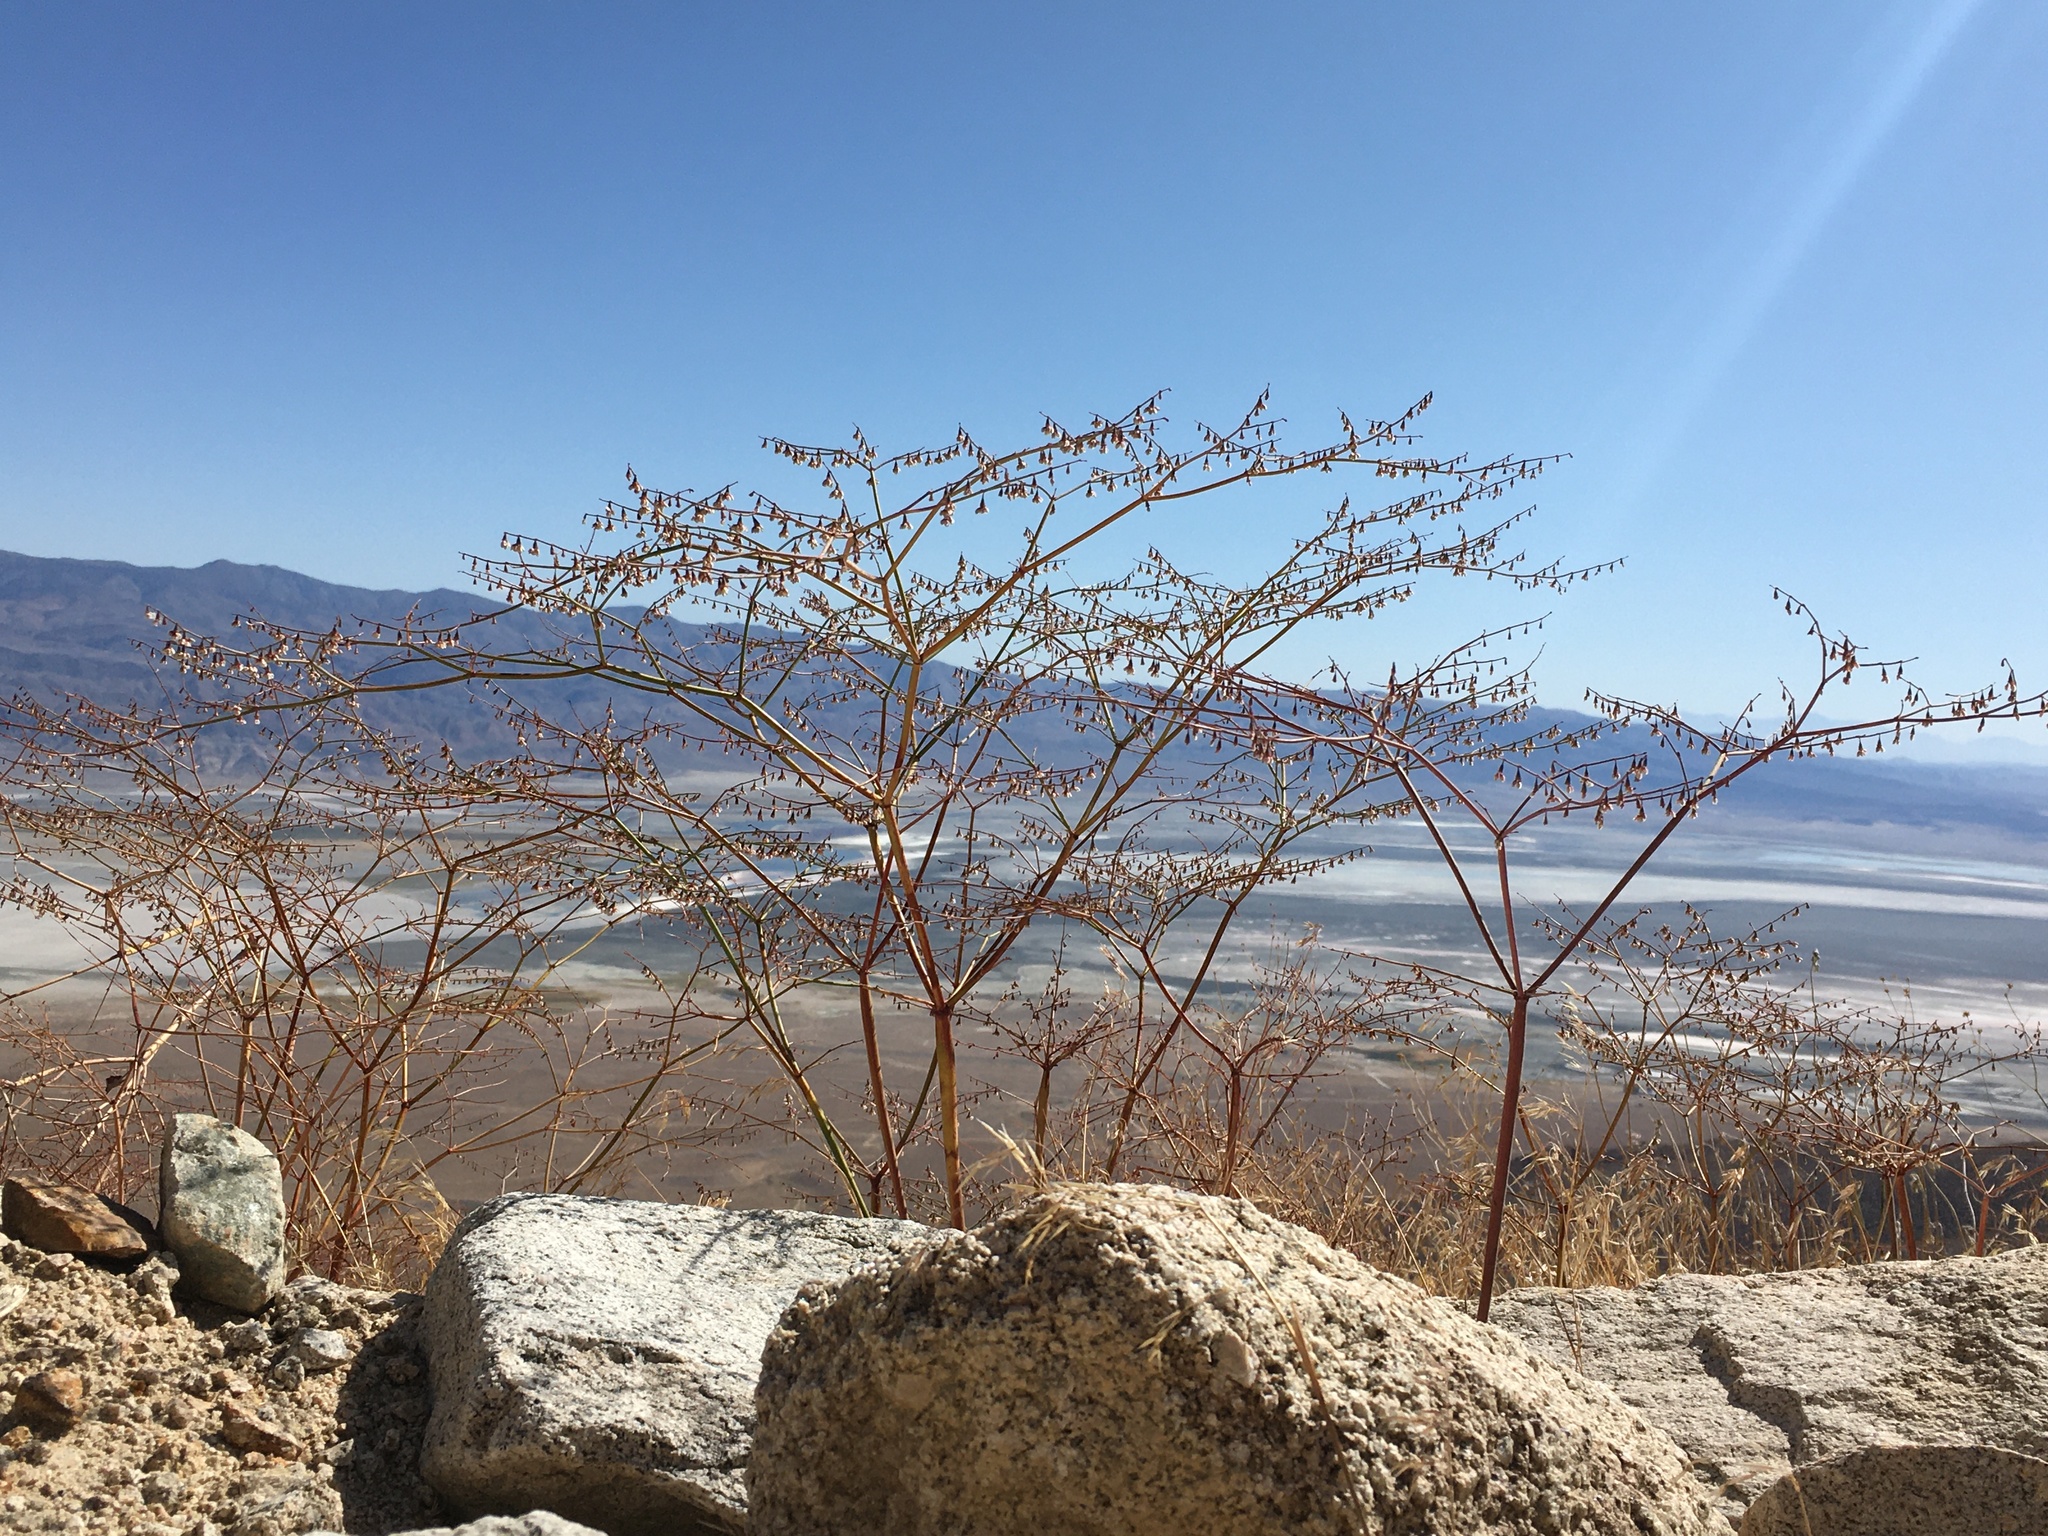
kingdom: Plantae
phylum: Tracheophyta
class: Magnoliopsida
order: Caryophyllales
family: Polygonaceae
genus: Eriogonum
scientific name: Eriogonum deflexum
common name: Skeleton-weed
